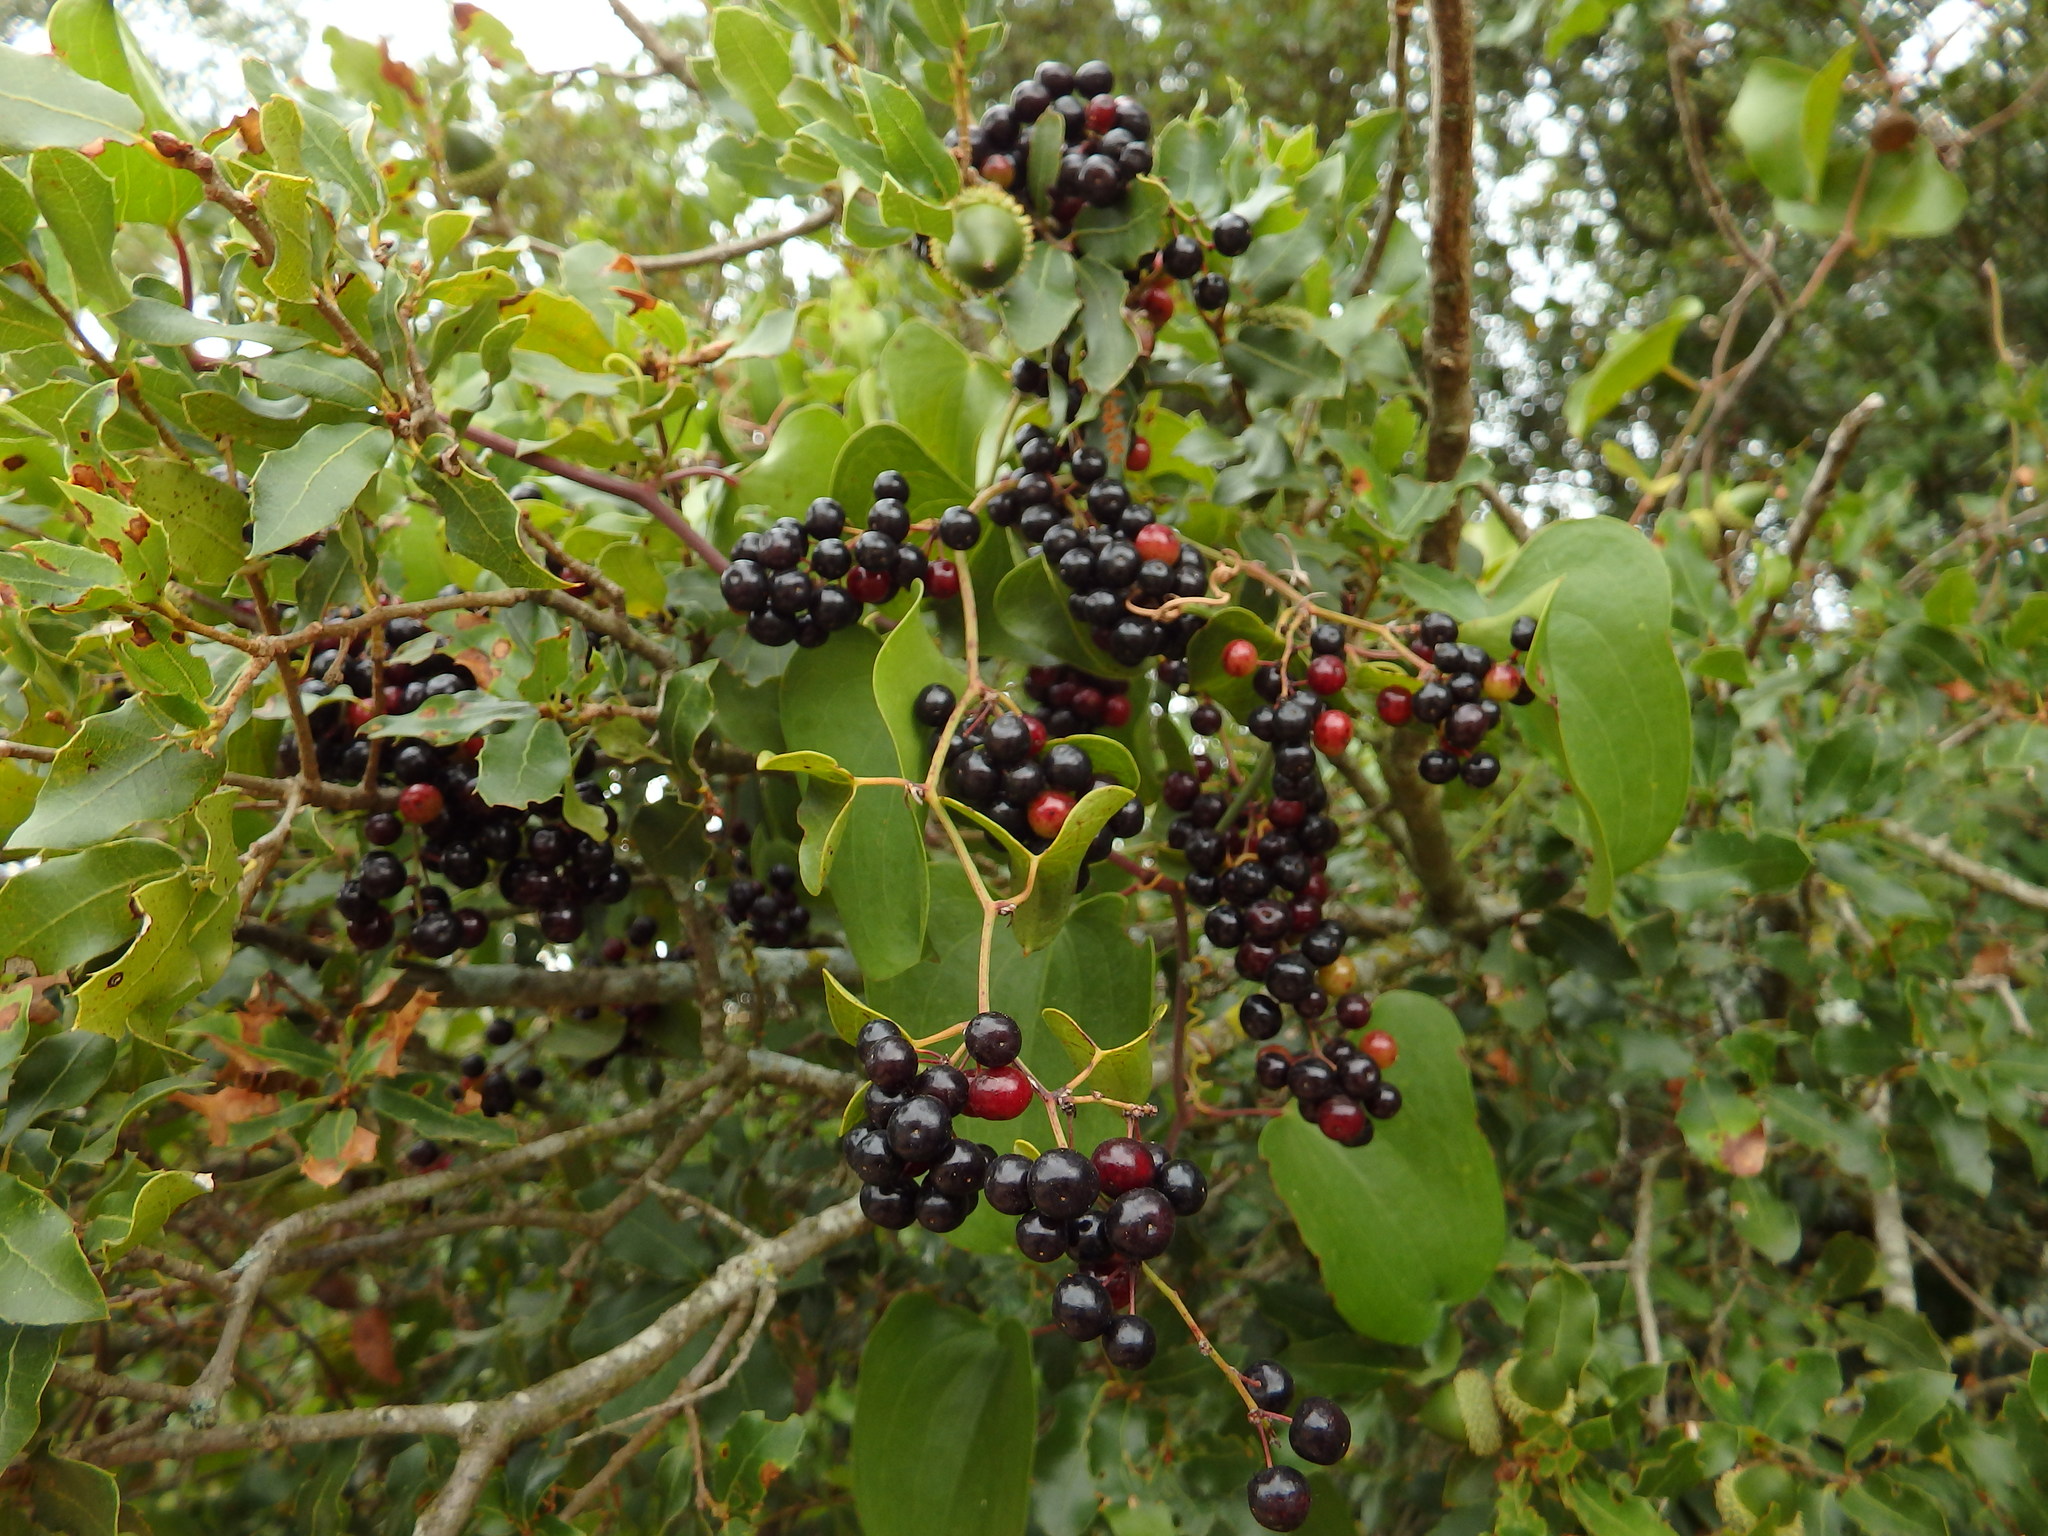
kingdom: Plantae
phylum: Tracheophyta
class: Liliopsida
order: Liliales
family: Smilacaceae
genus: Smilax
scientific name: Smilax aspera
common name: Common smilax
